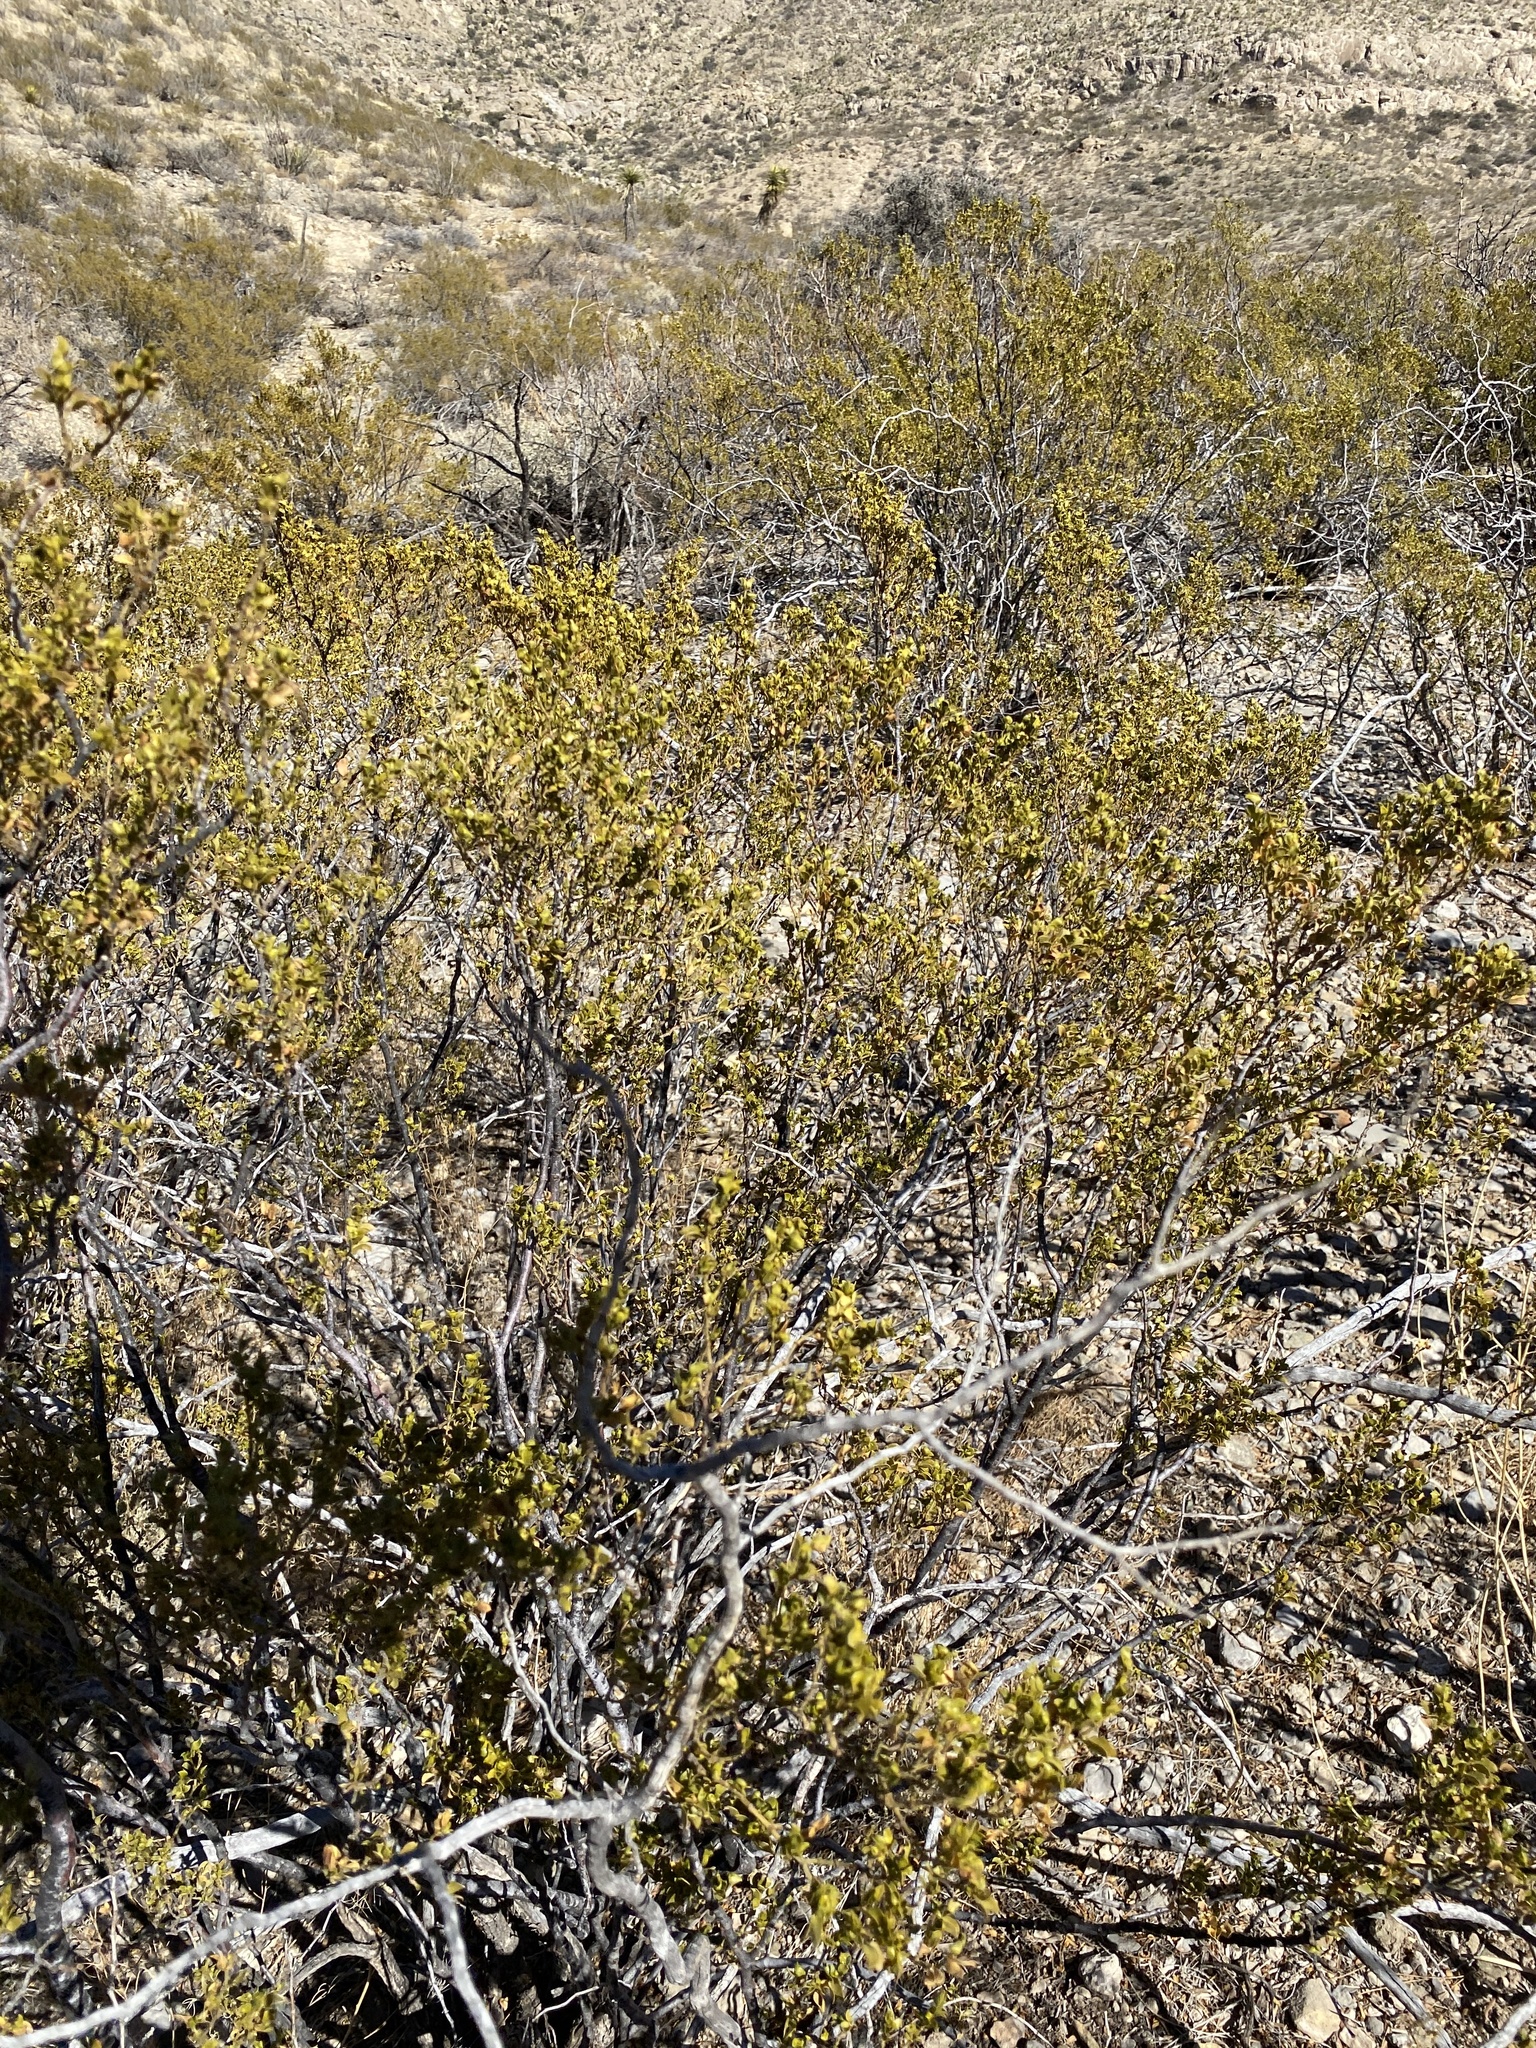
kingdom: Plantae
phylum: Tracheophyta
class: Magnoliopsida
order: Zygophyllales
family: Zygophyllaceae
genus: Larrea
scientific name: Larrea tridentata
